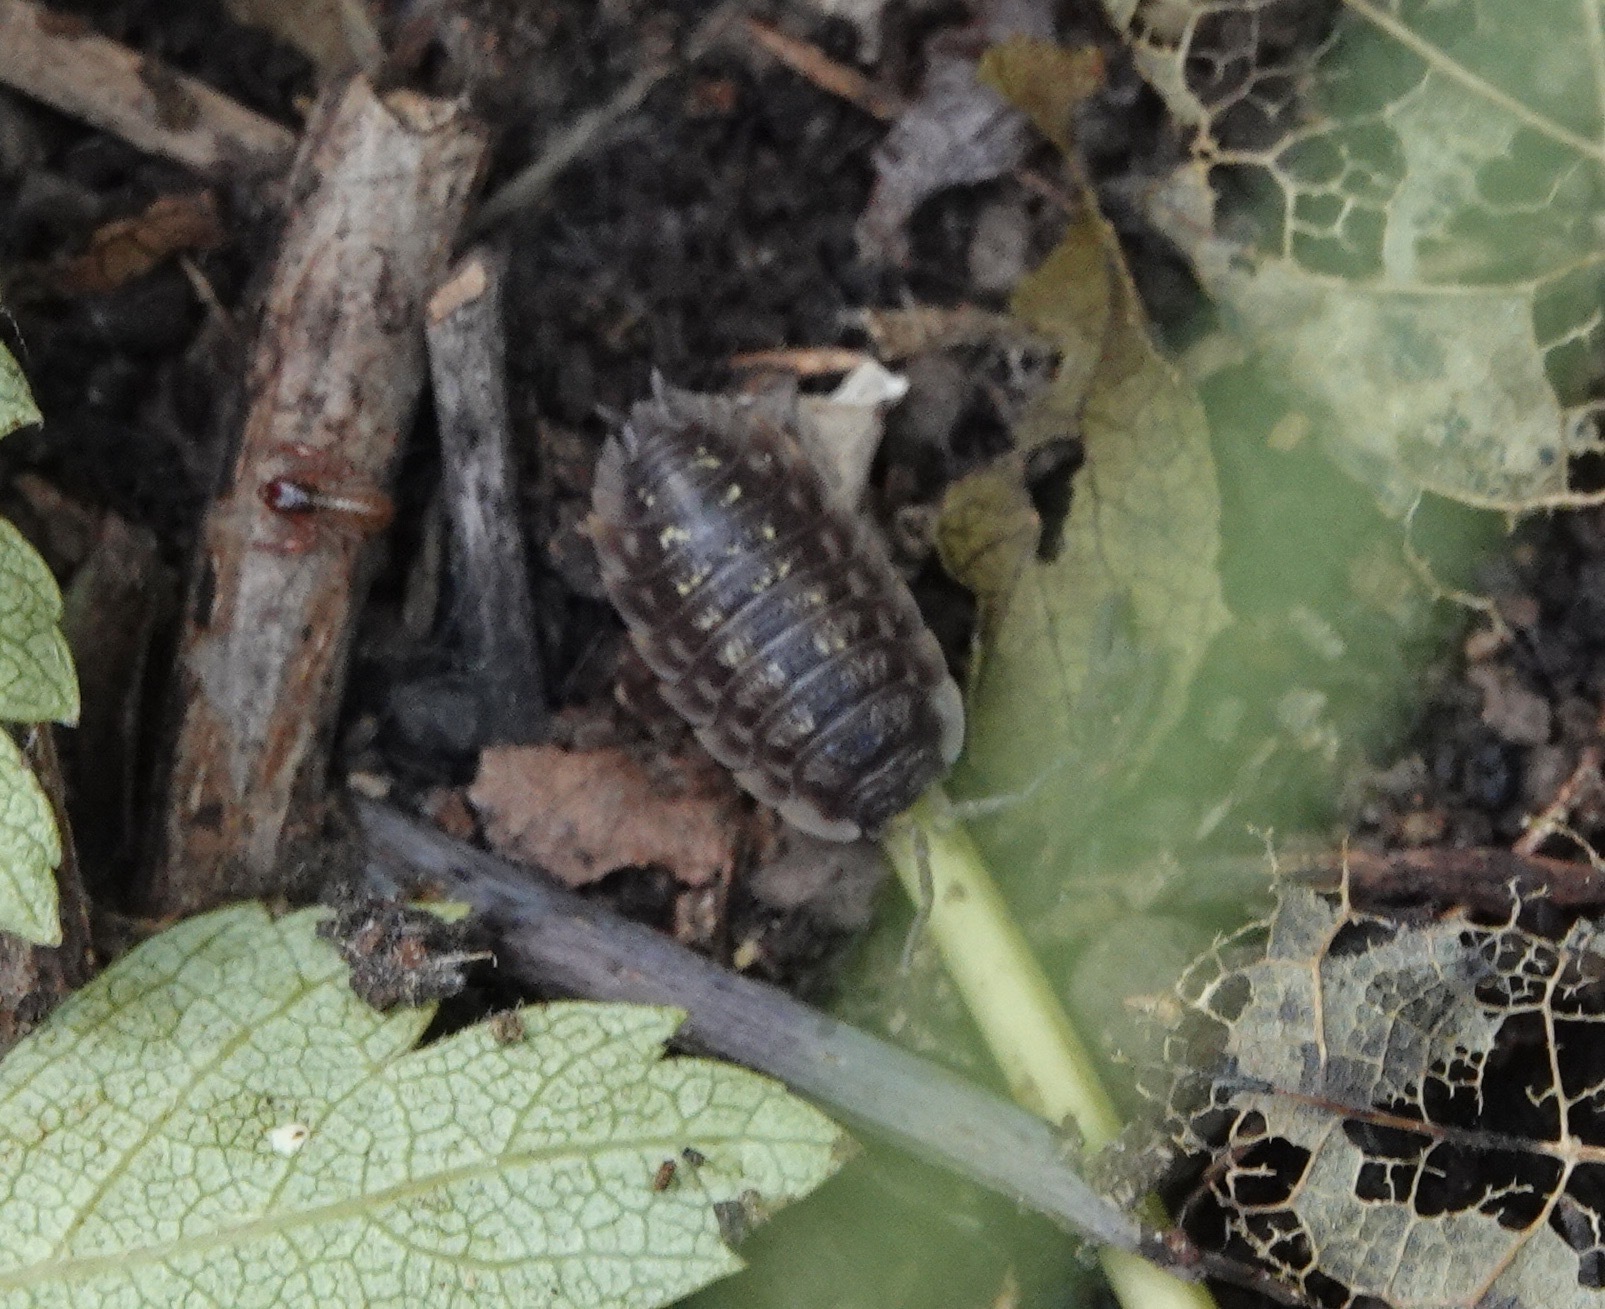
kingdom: Animalia
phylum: Arthropoda
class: Malacostraca
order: Isopoda
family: Oniscidae
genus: Oniscus
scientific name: Oniscus asellus
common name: Common shiny woodlouse
